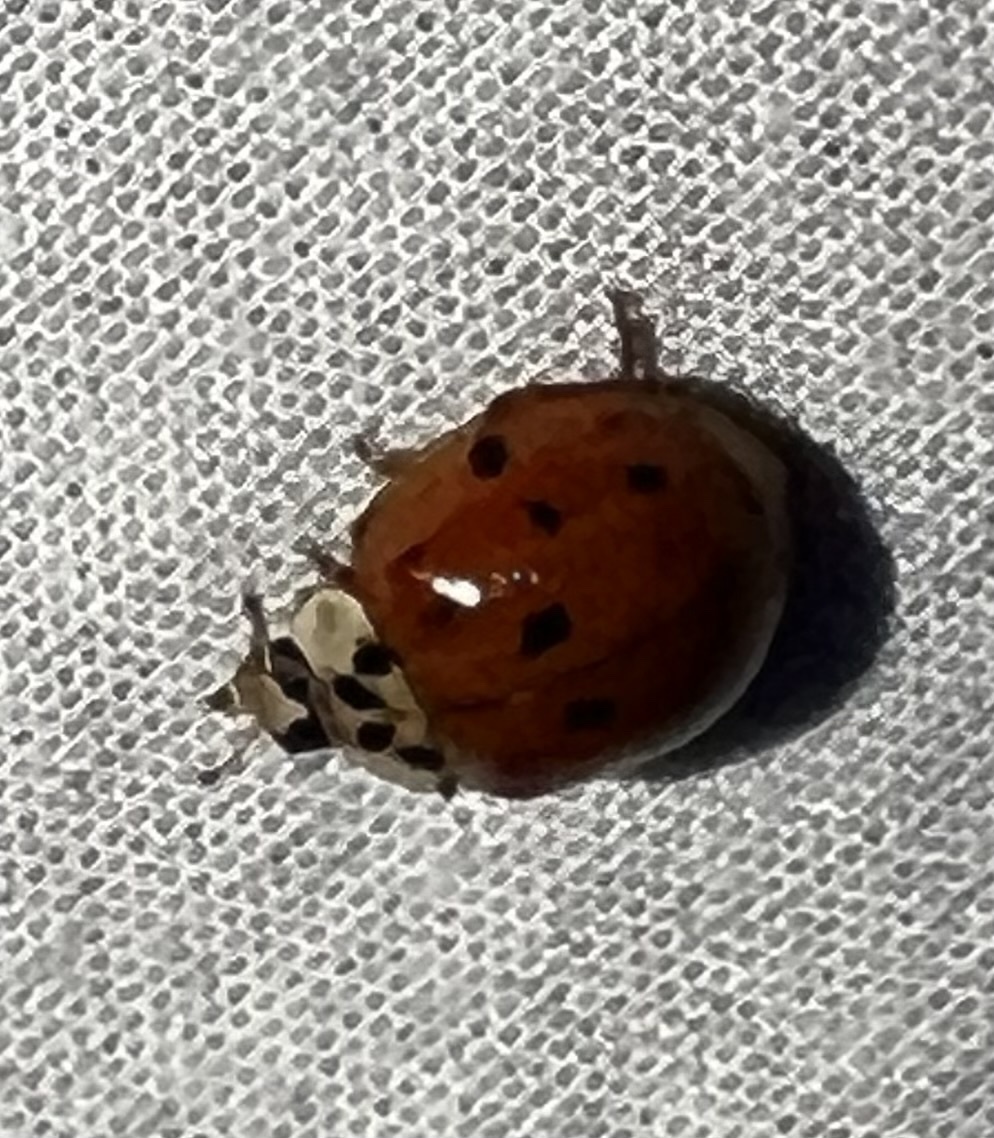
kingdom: Animalia
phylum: Arthropoda
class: Insecta
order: Coleoptera
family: Coccinellidae
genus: Harmonia
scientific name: Harmonia axyridis
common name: Harlequin ladybird
